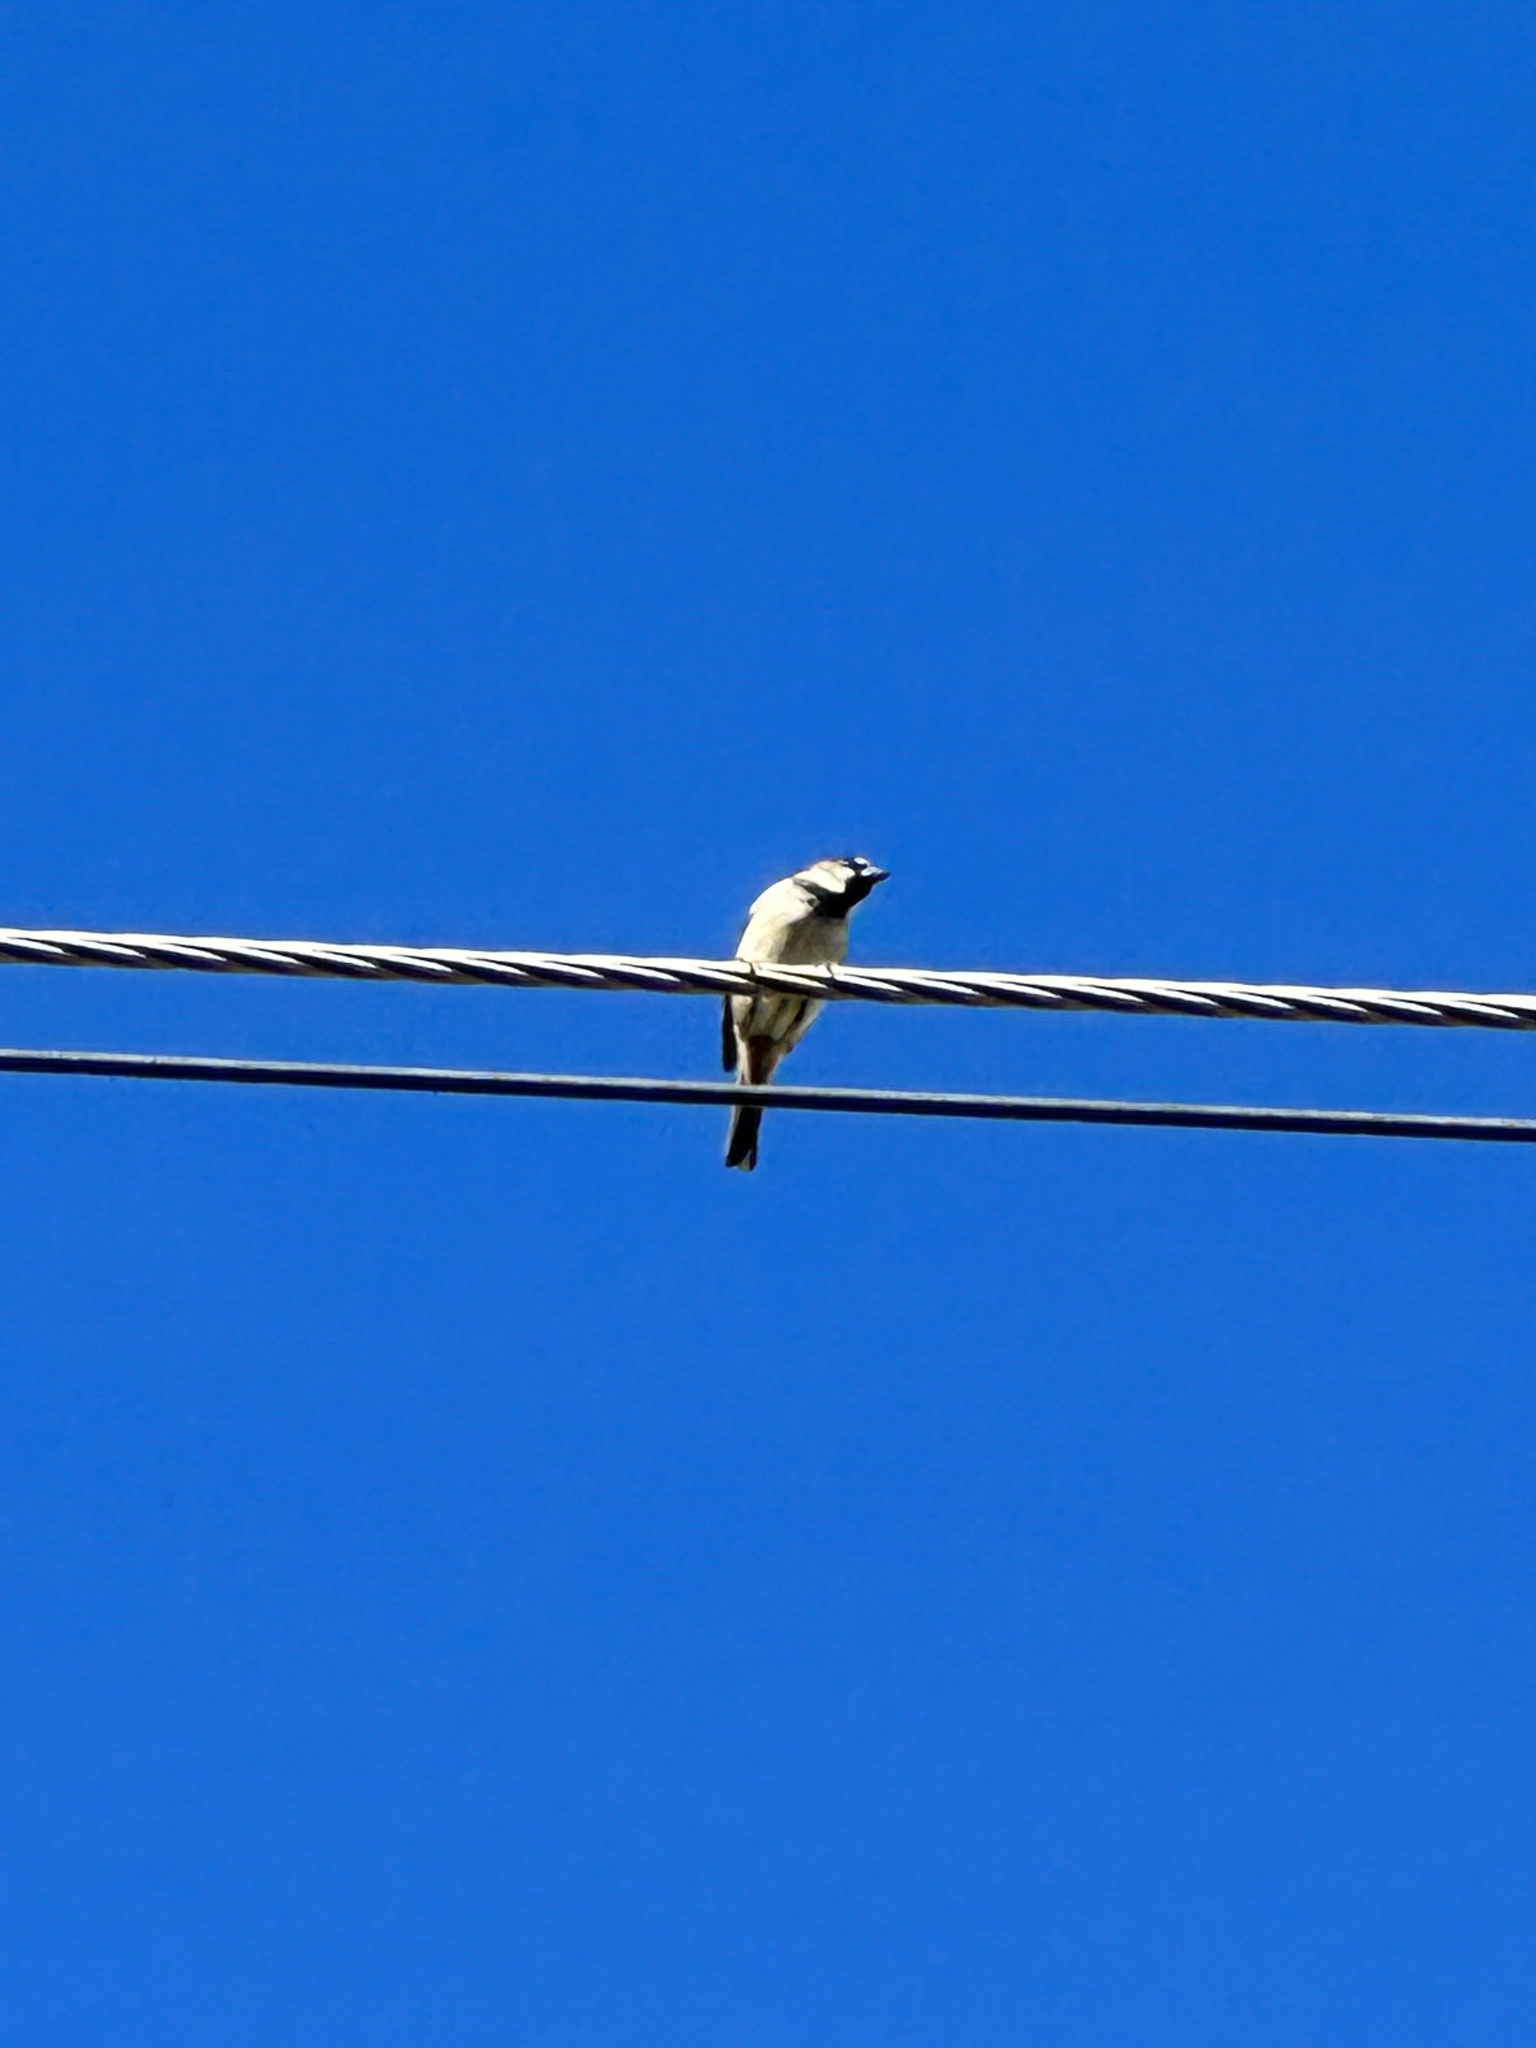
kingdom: Animalia
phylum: Chordata
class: Aves
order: Passeriformes
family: Passeridae
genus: Passer
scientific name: Passer domesticus
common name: House sparrow
